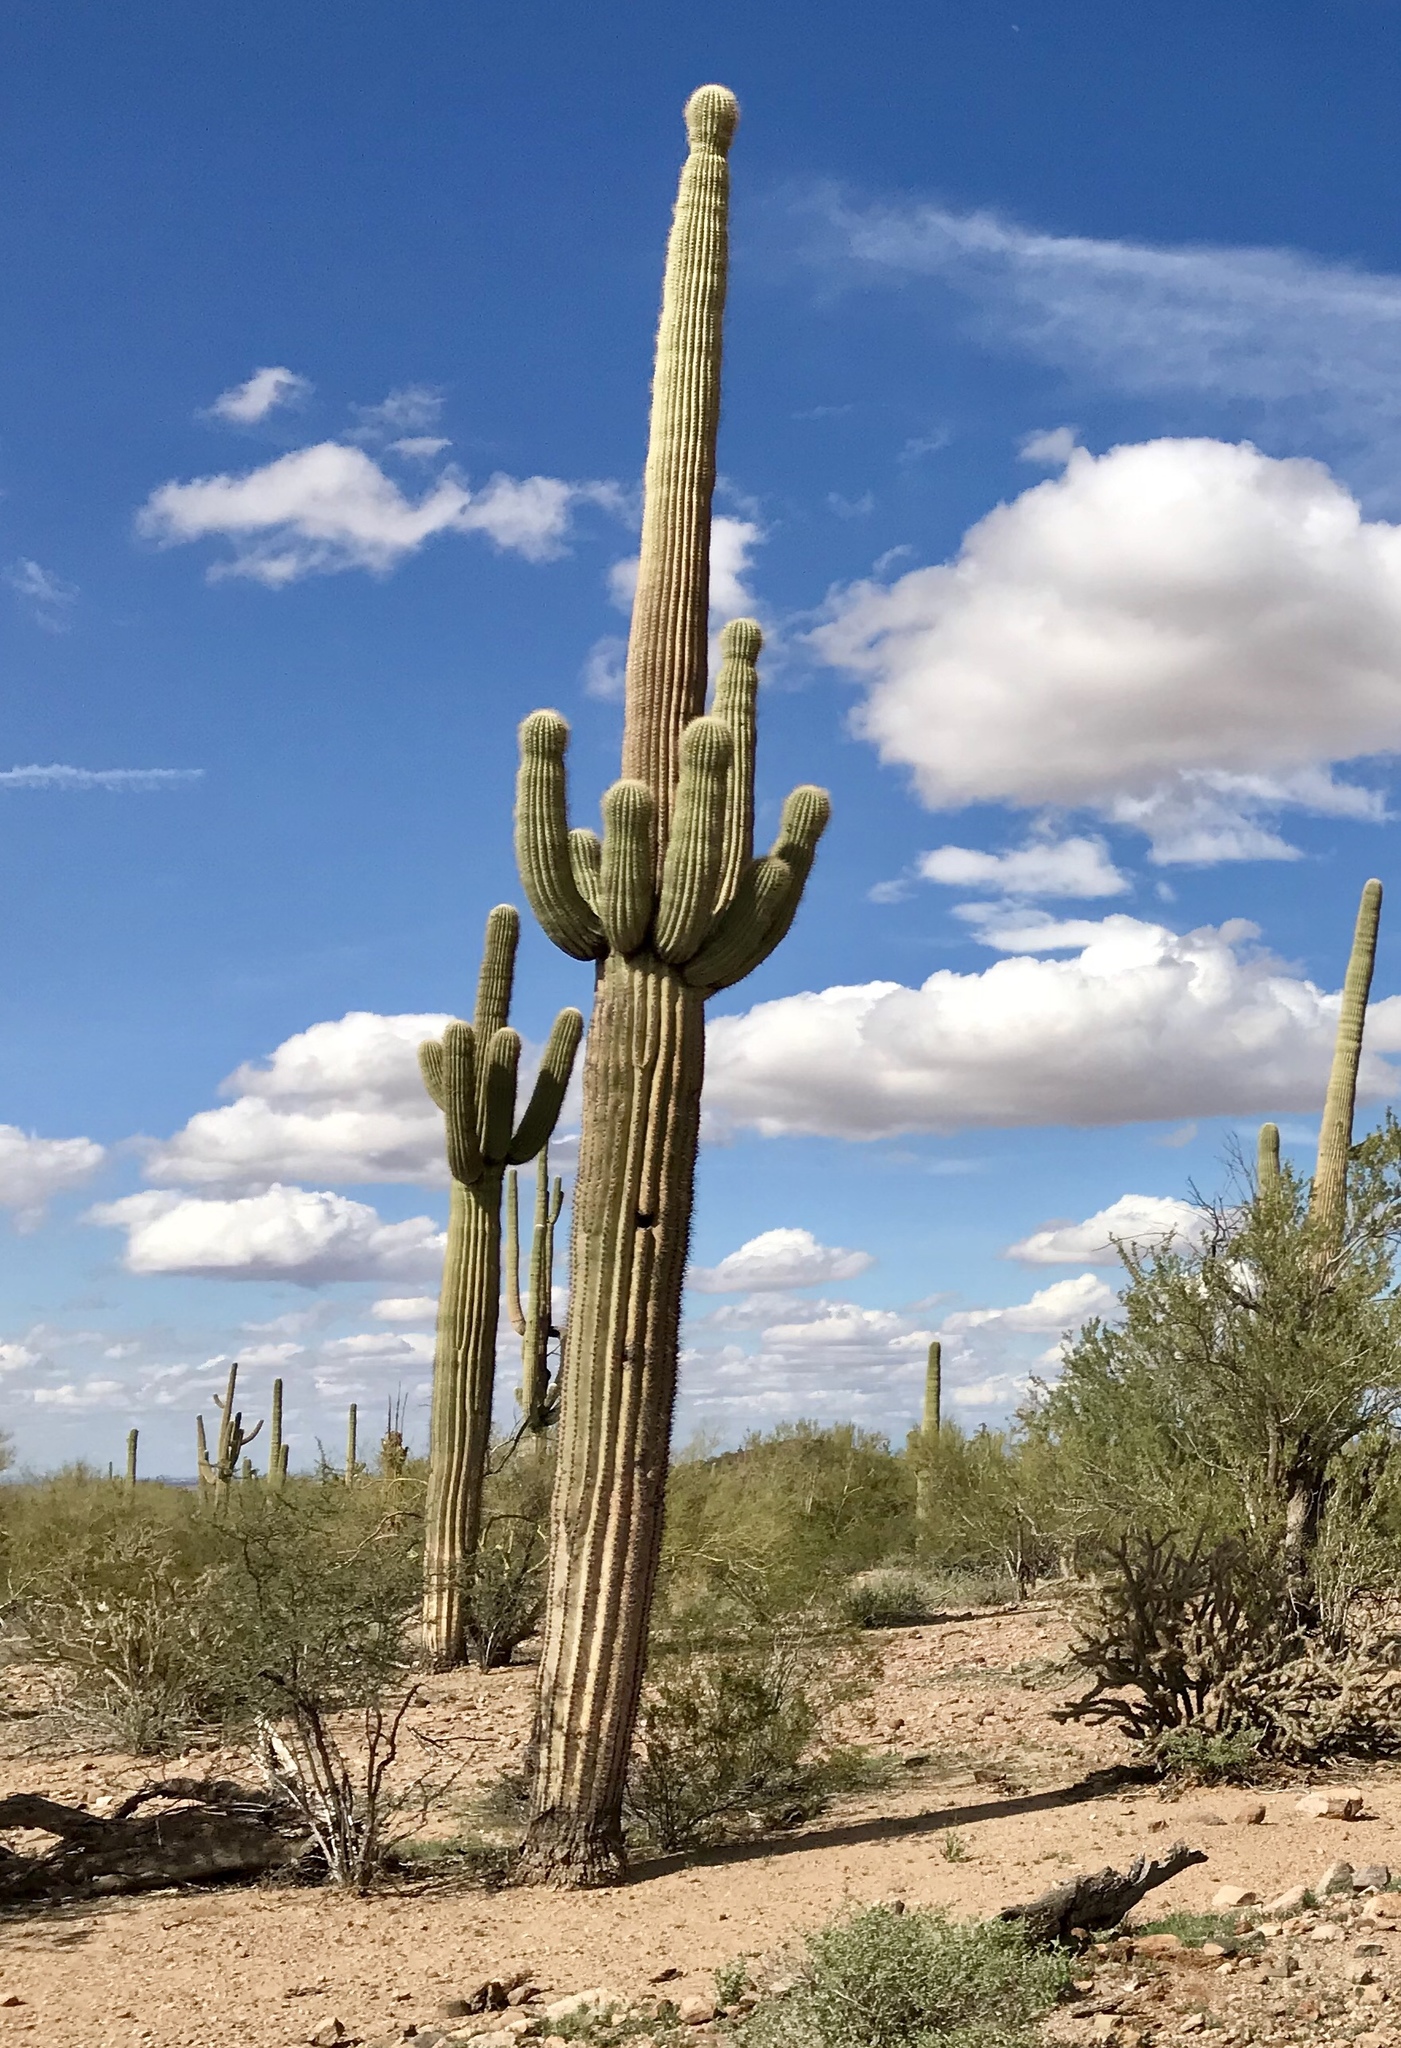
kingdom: Plantae
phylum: Tracheophyta
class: Magnoliopsida
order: Caryophyllales
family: Cactaceae
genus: Carnegiea
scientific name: Carnegiea gigantea
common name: Saguaro
